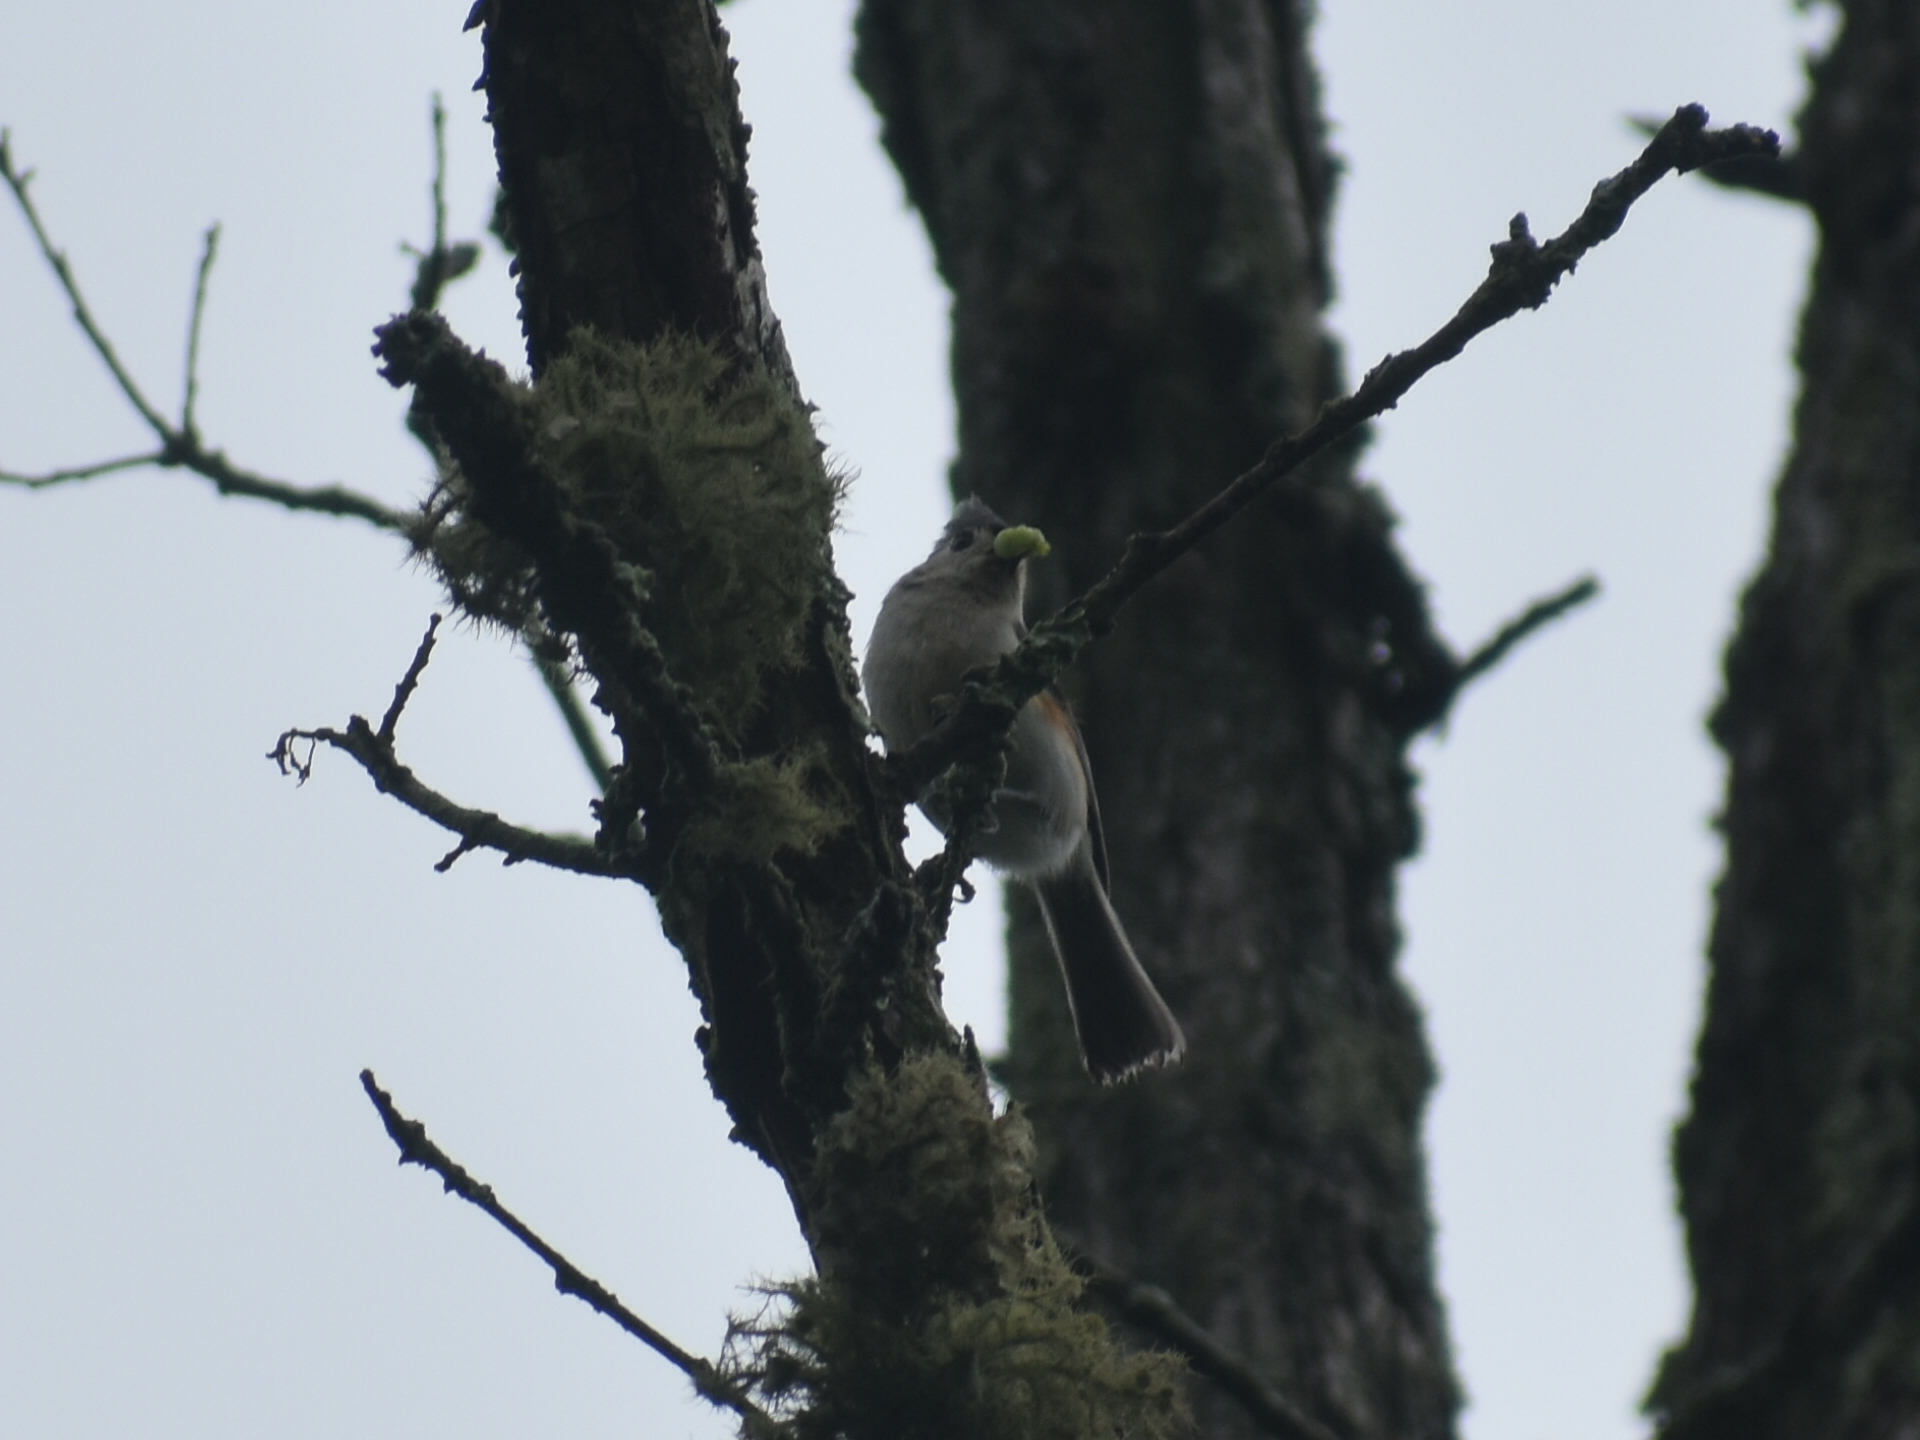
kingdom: Animalia
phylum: Chordata
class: Aves
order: Passeriformes
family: Paridae
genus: Baeolophus
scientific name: Baeolophus bicolor
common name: Tufted titmouse
